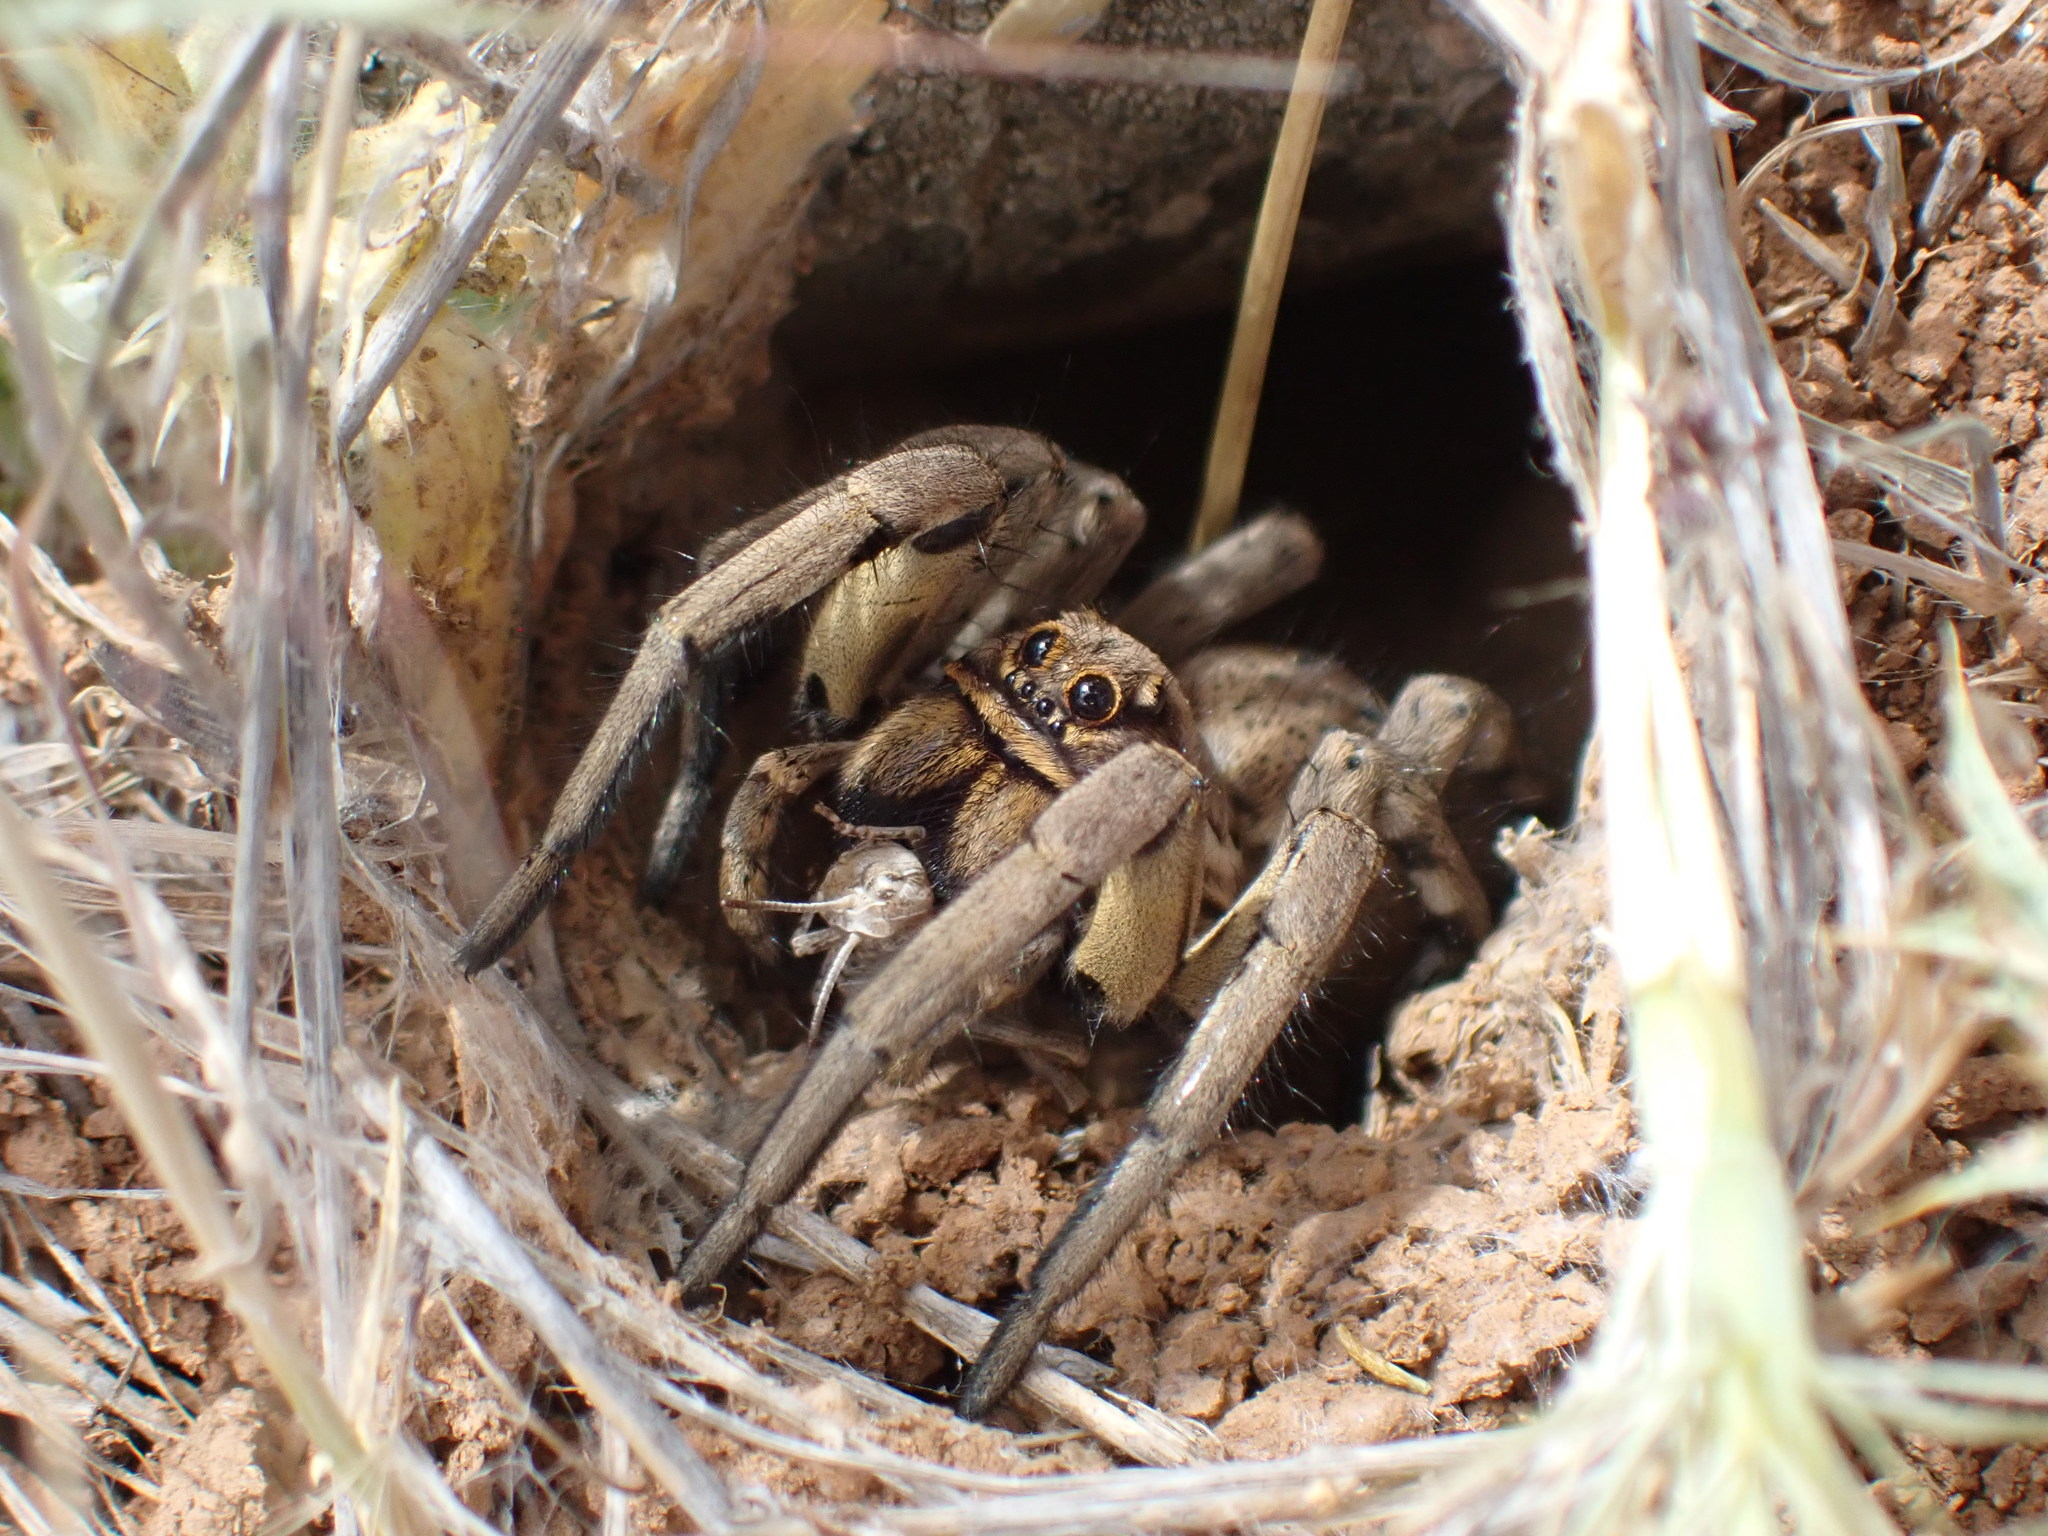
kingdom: Animalia
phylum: Arthropoda
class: Arachnida
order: Araneae
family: Lycosidae
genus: Lycosa
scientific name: Lycosa tarantula
